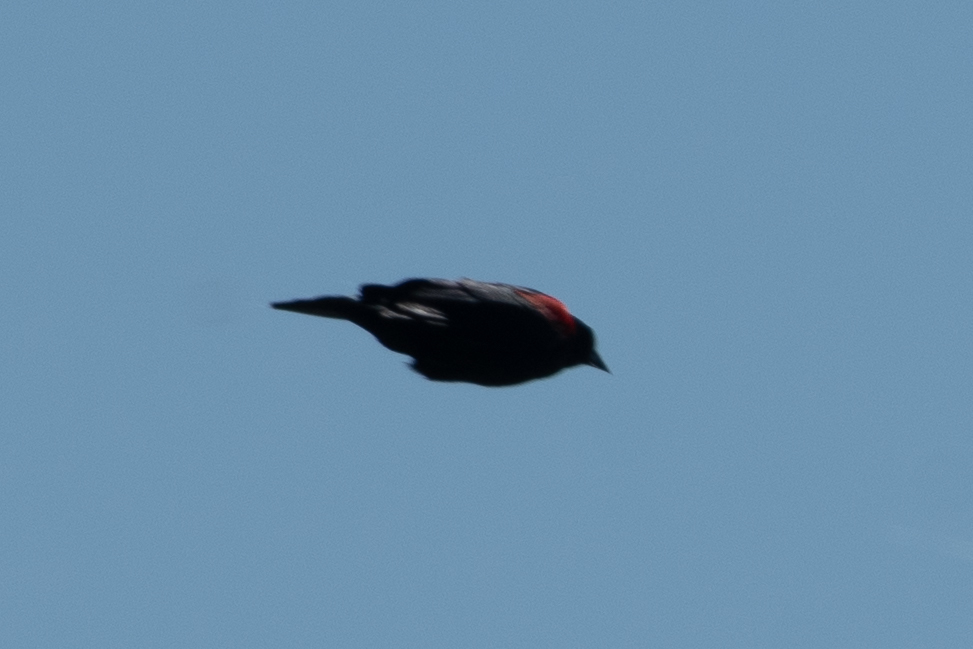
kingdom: Animalia
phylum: Chordata
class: Aves
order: Passeriformes
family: Icteridae
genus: Agelaius
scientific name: Agelaius phoeniceus
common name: Red-winged blackbird
